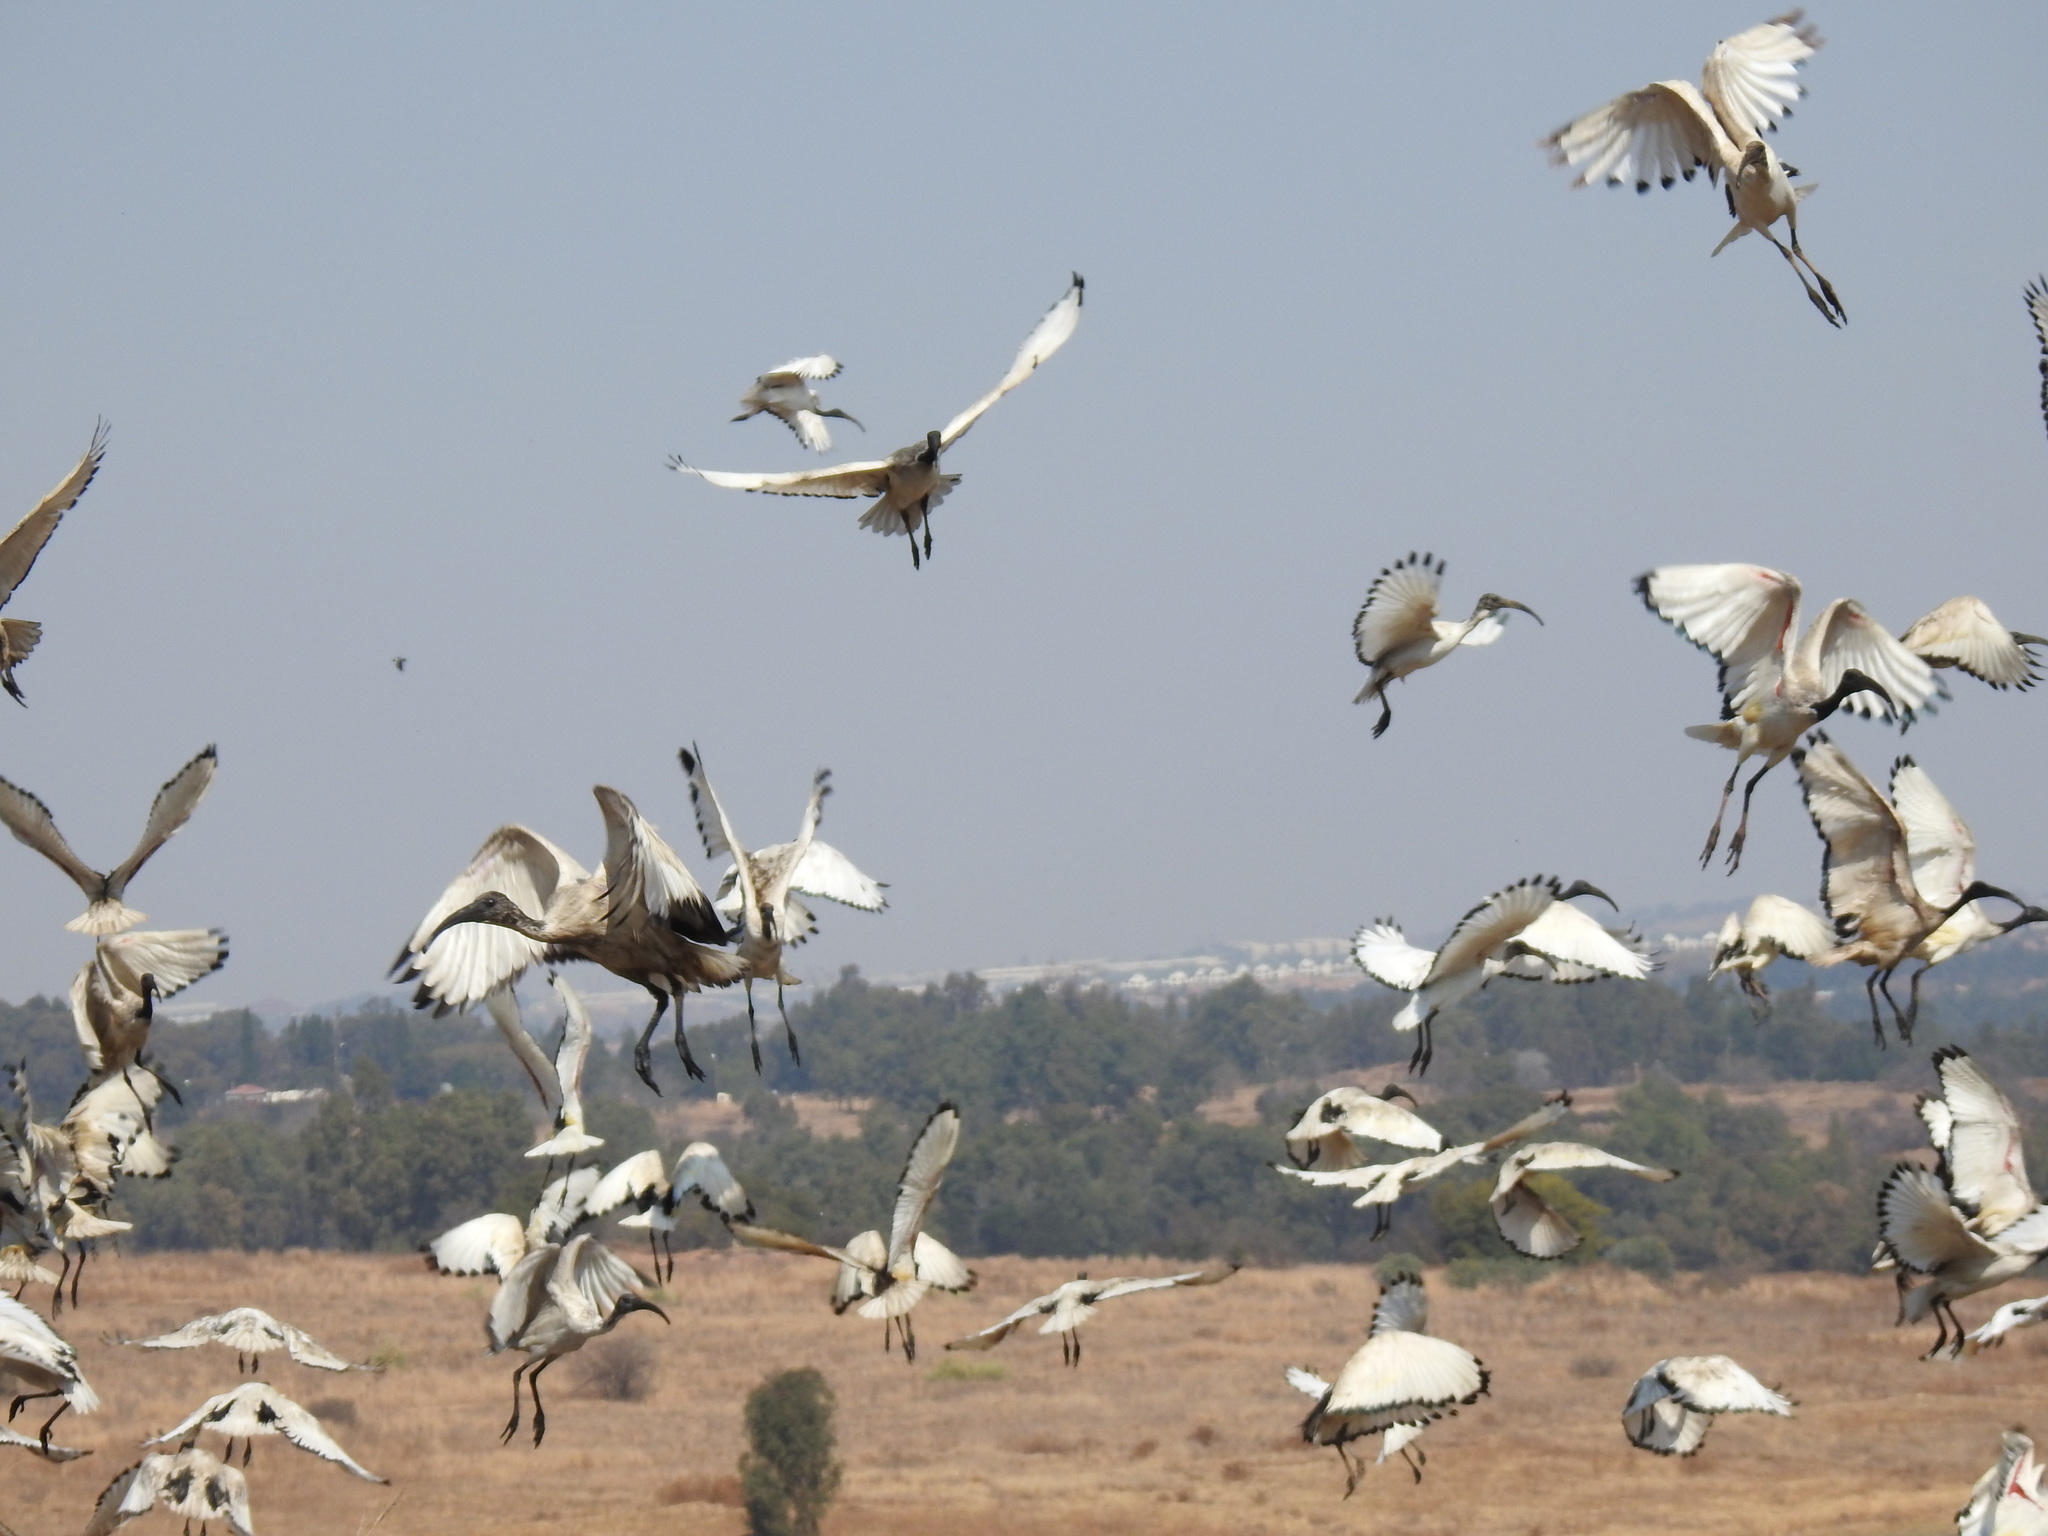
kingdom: Animalia
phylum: Chordata
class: Aves
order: Pelecaniformes
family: Threskiornithidae
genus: Threskiornis
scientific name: Threskiornis aethiopicus
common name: Sacred ibis
